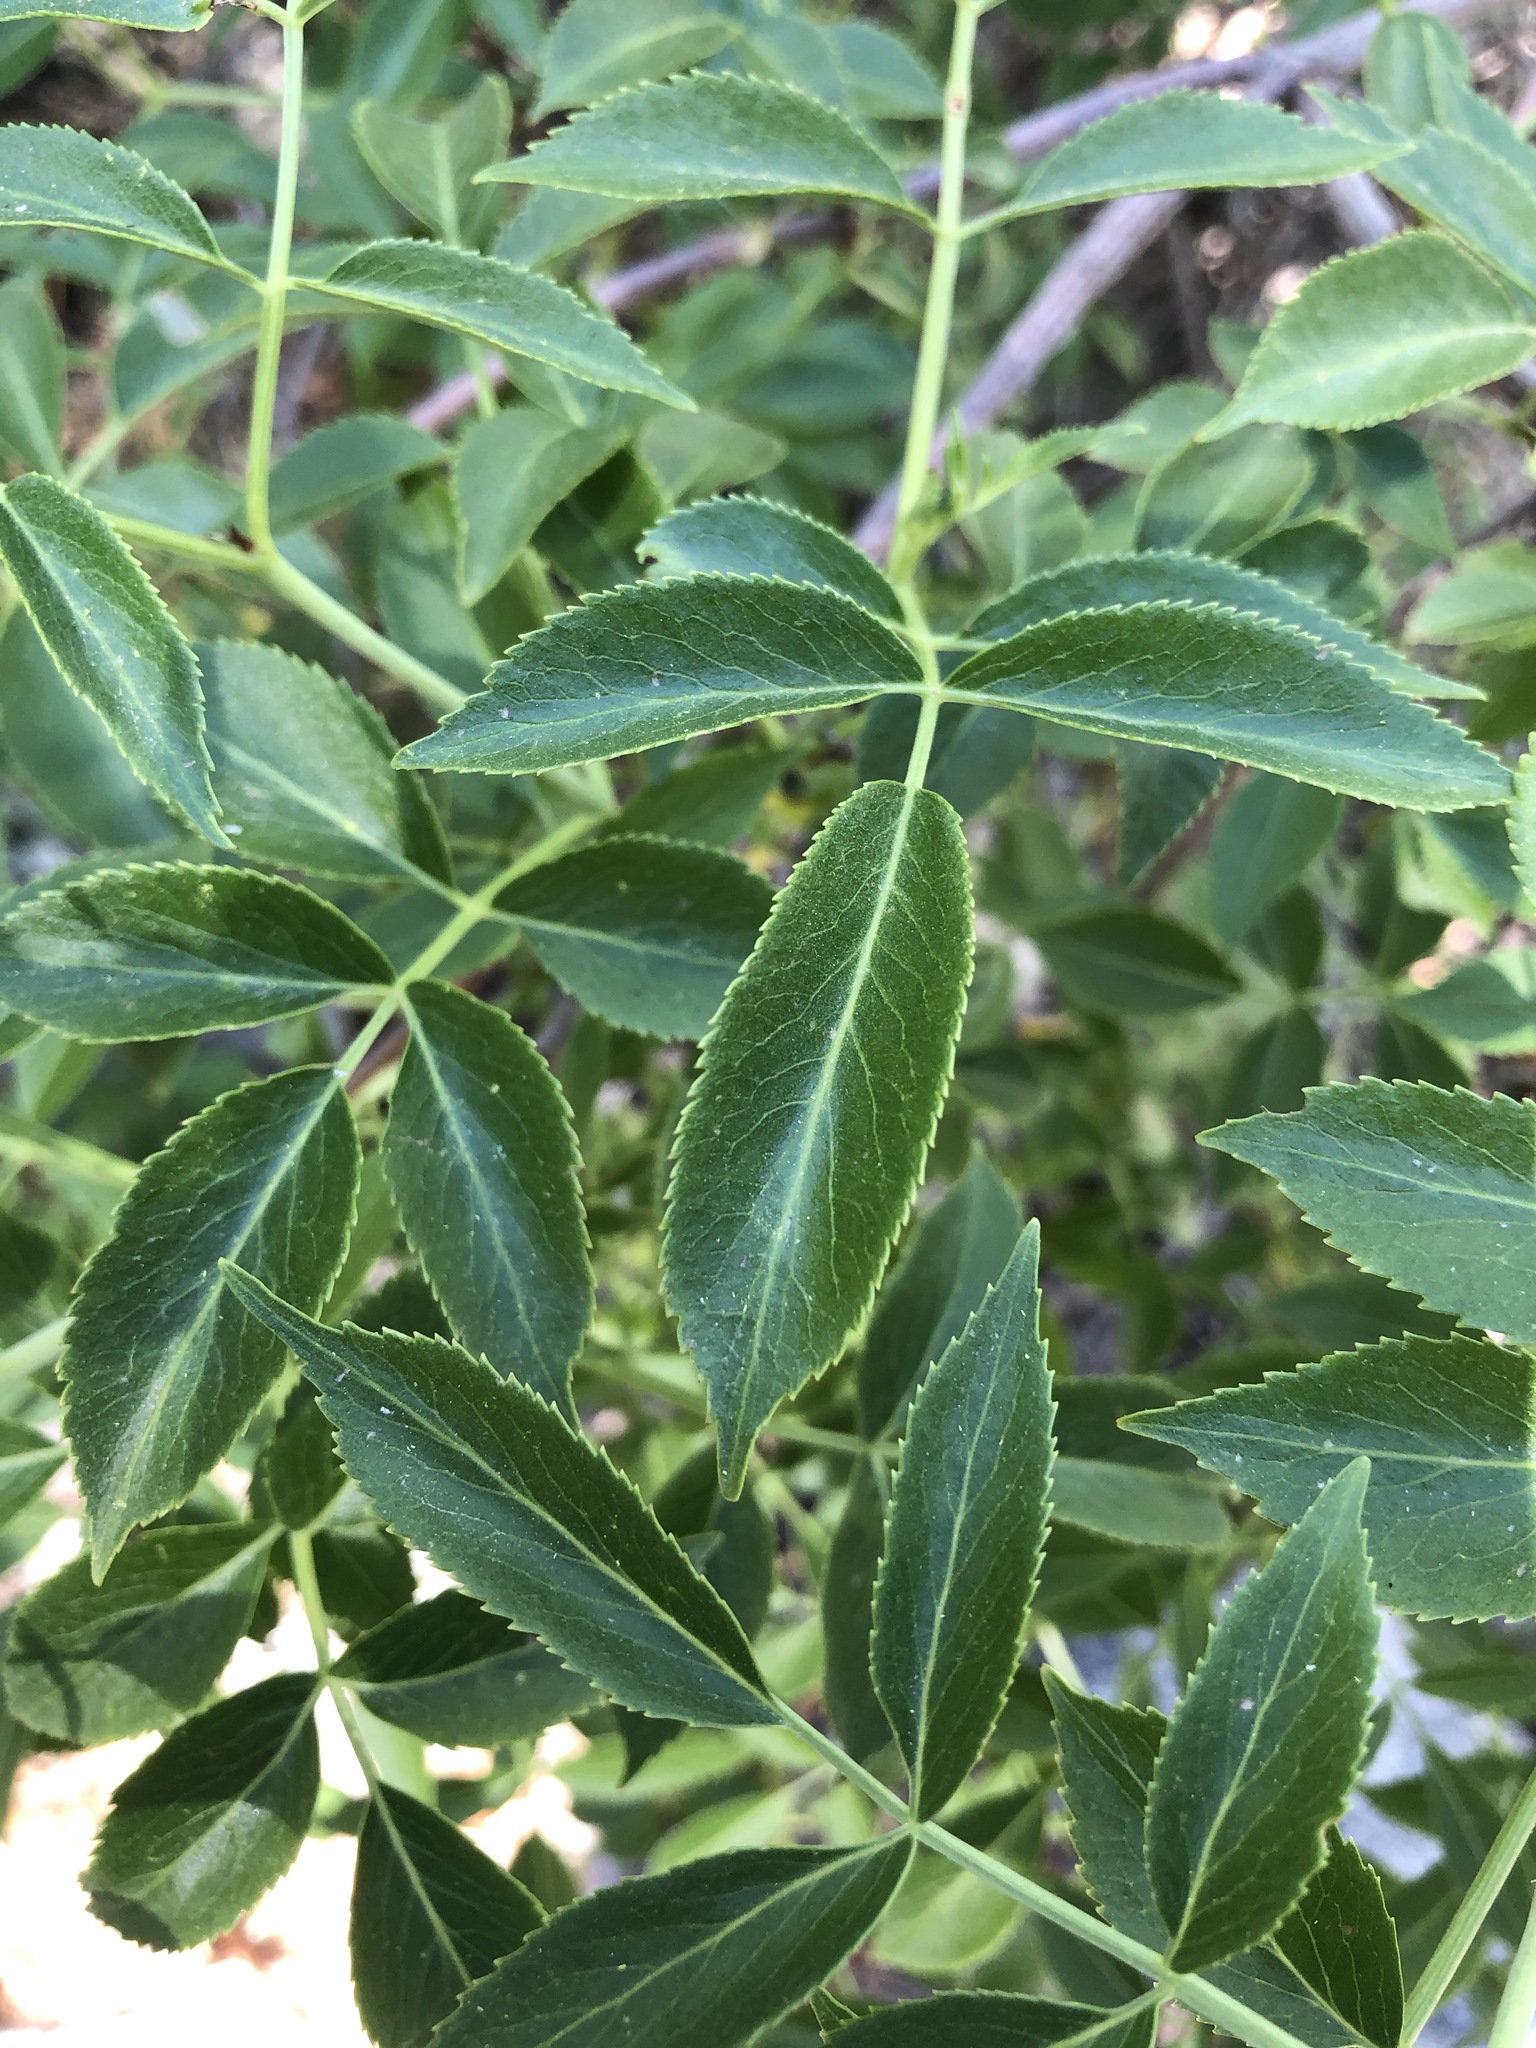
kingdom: Plantae
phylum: Tracheophyta
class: Magnoliopsida
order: Dipsacales
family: Viburnaceae
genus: Sambucus
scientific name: Sambucus cerulea
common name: Blue elder
